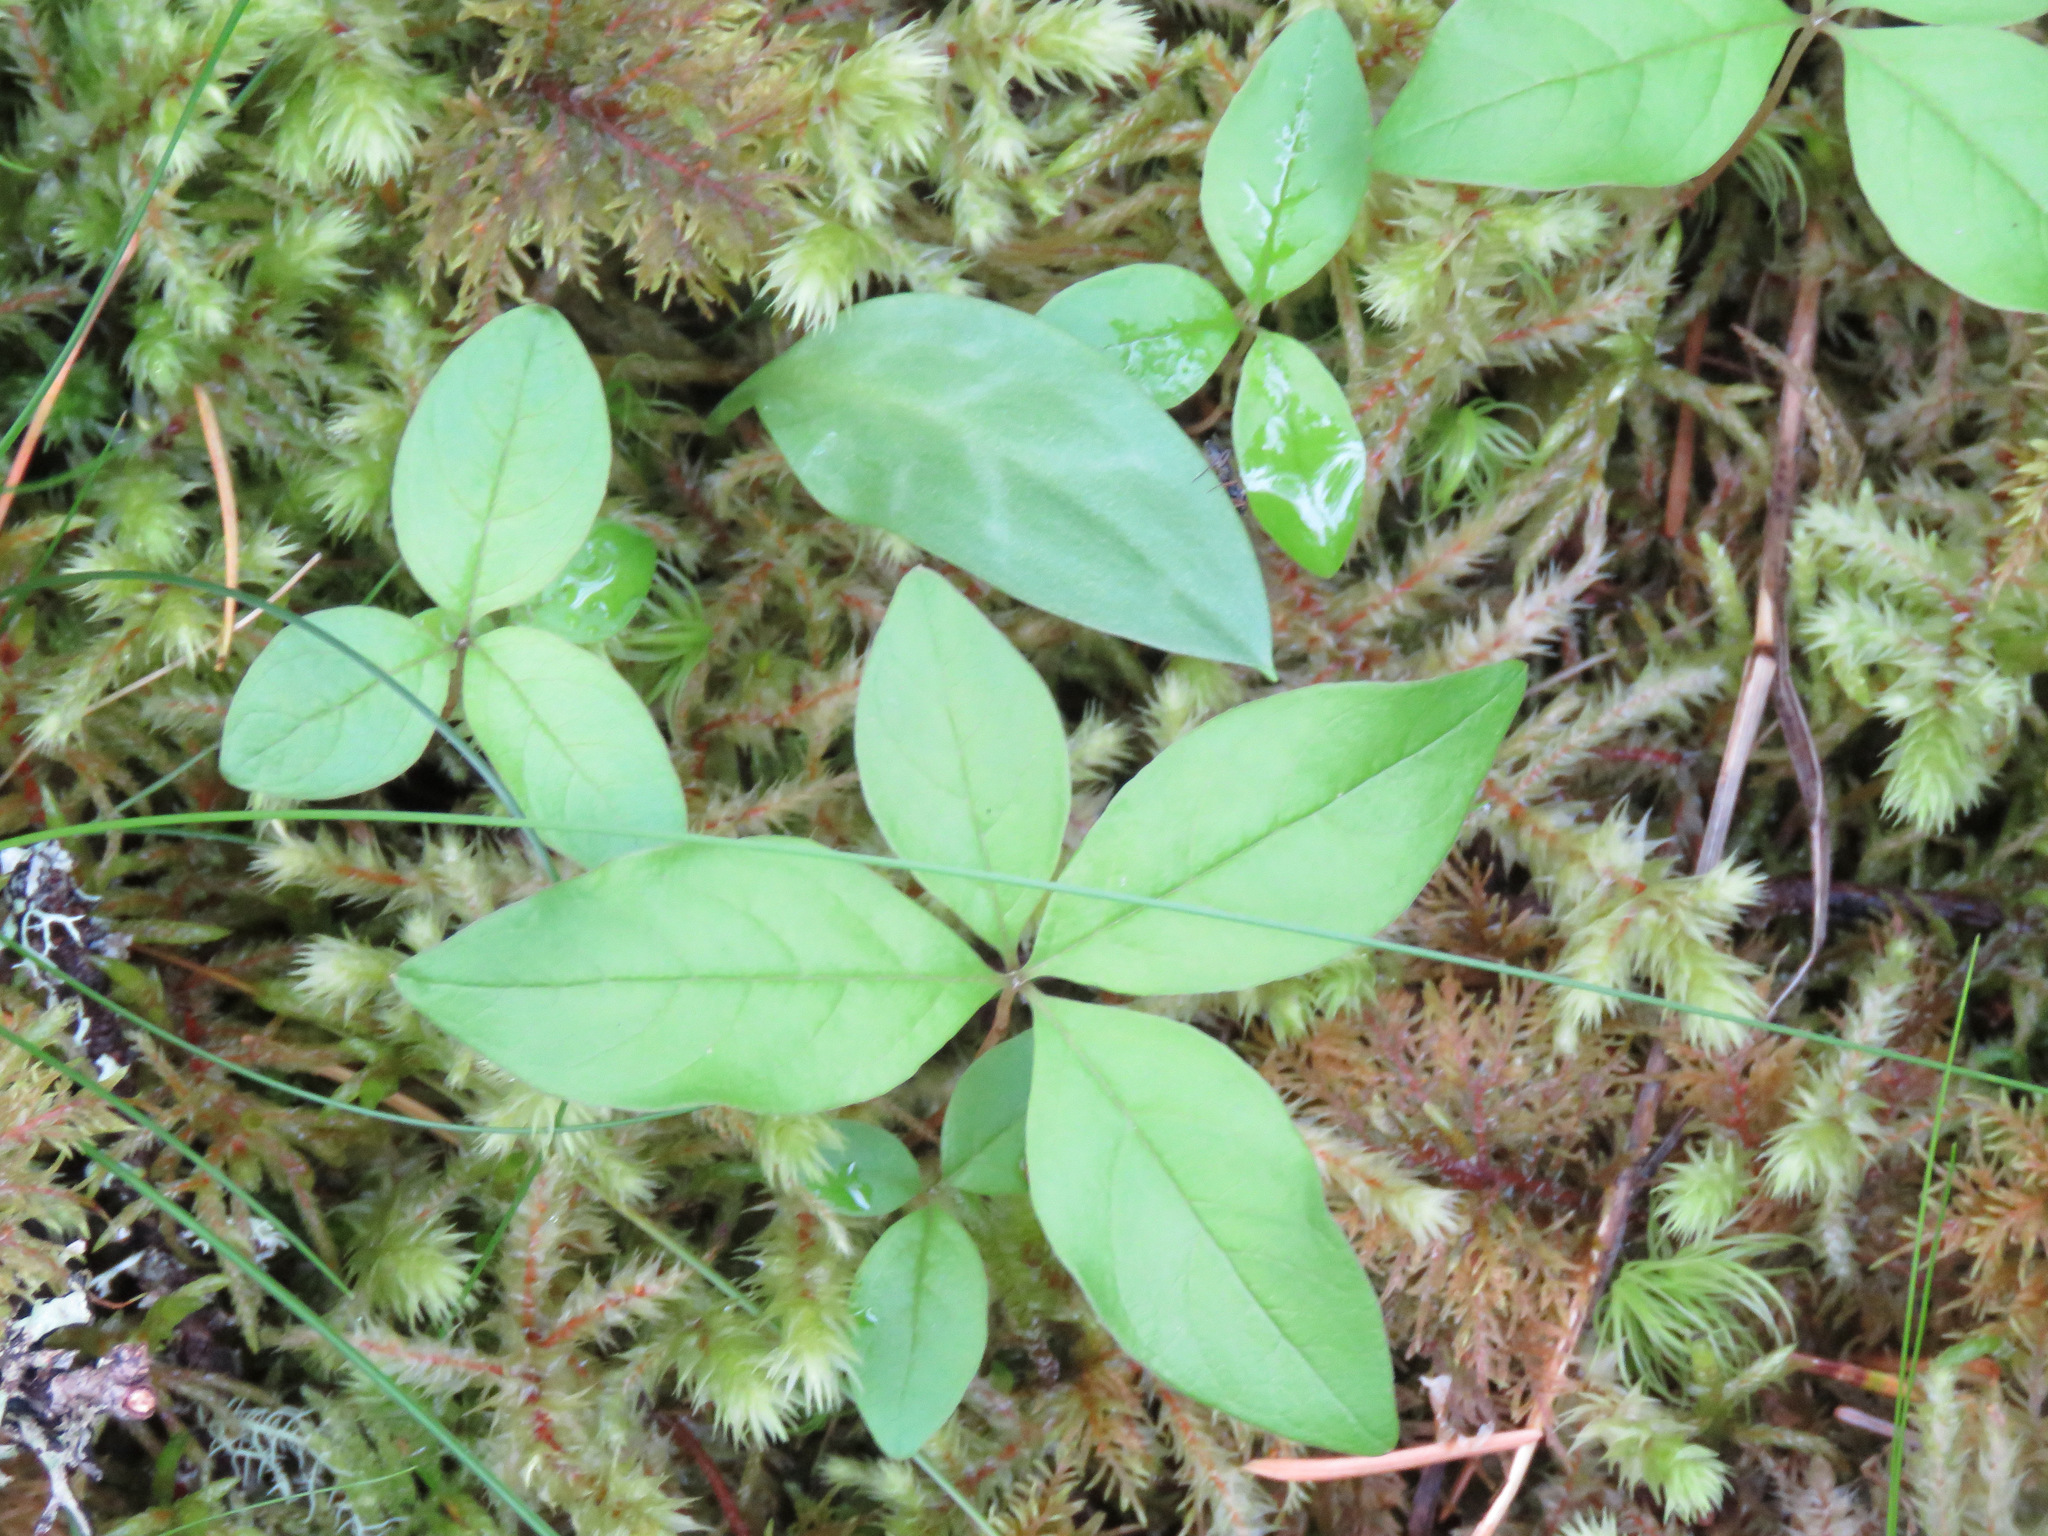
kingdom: Plantae
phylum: Tracheophyta
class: Magnoliopsida
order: Ericales
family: Primulaceae
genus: Lysimachia
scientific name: Lysimachia latifolia
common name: Pacific starflower
